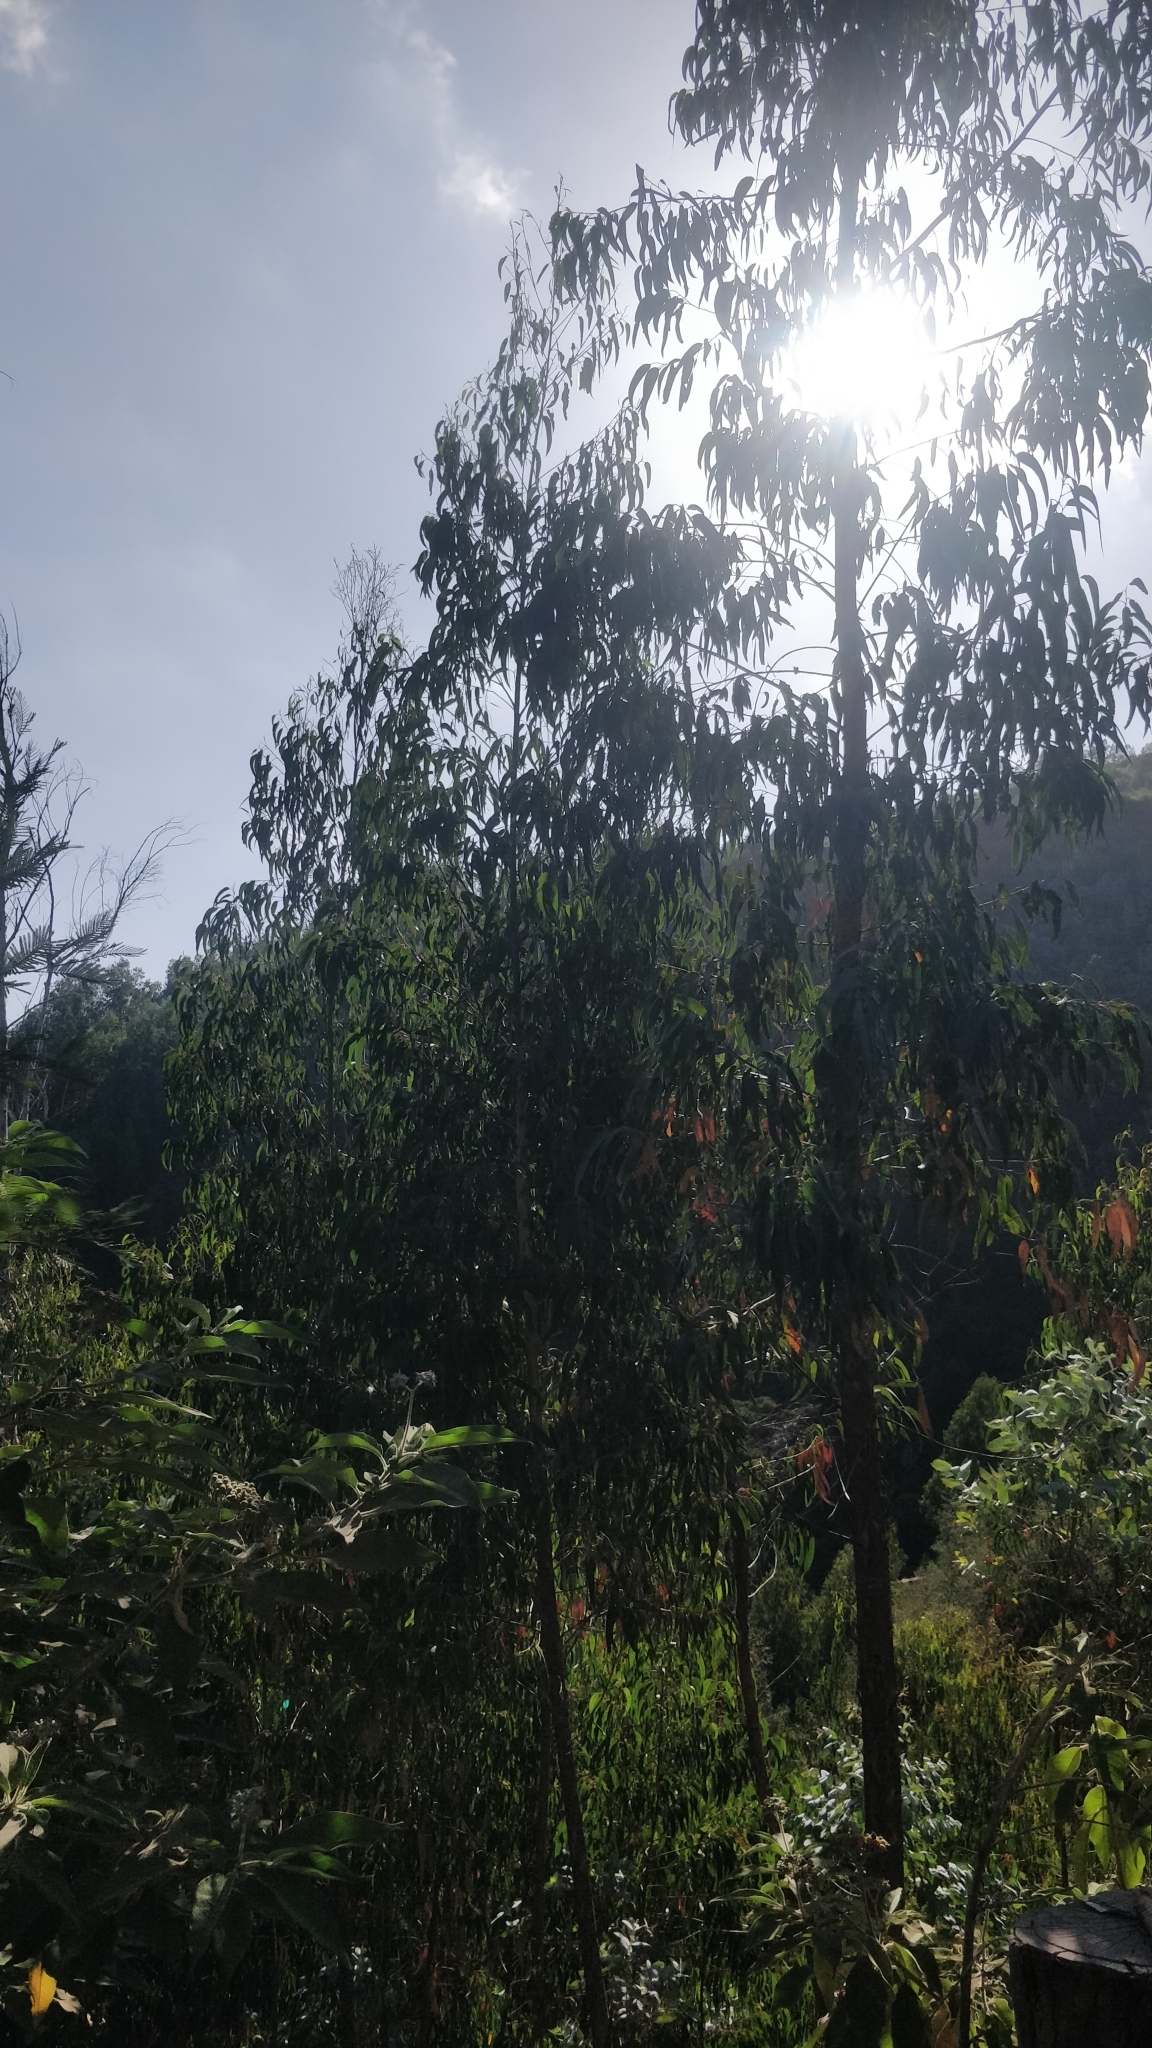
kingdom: Plantae
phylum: Tracheophyta
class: Magnoliopsida
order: Myrtales
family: Myrtaceae
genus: Eucalyptus
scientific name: Eucalyptus globulus
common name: Southern blue-gum
